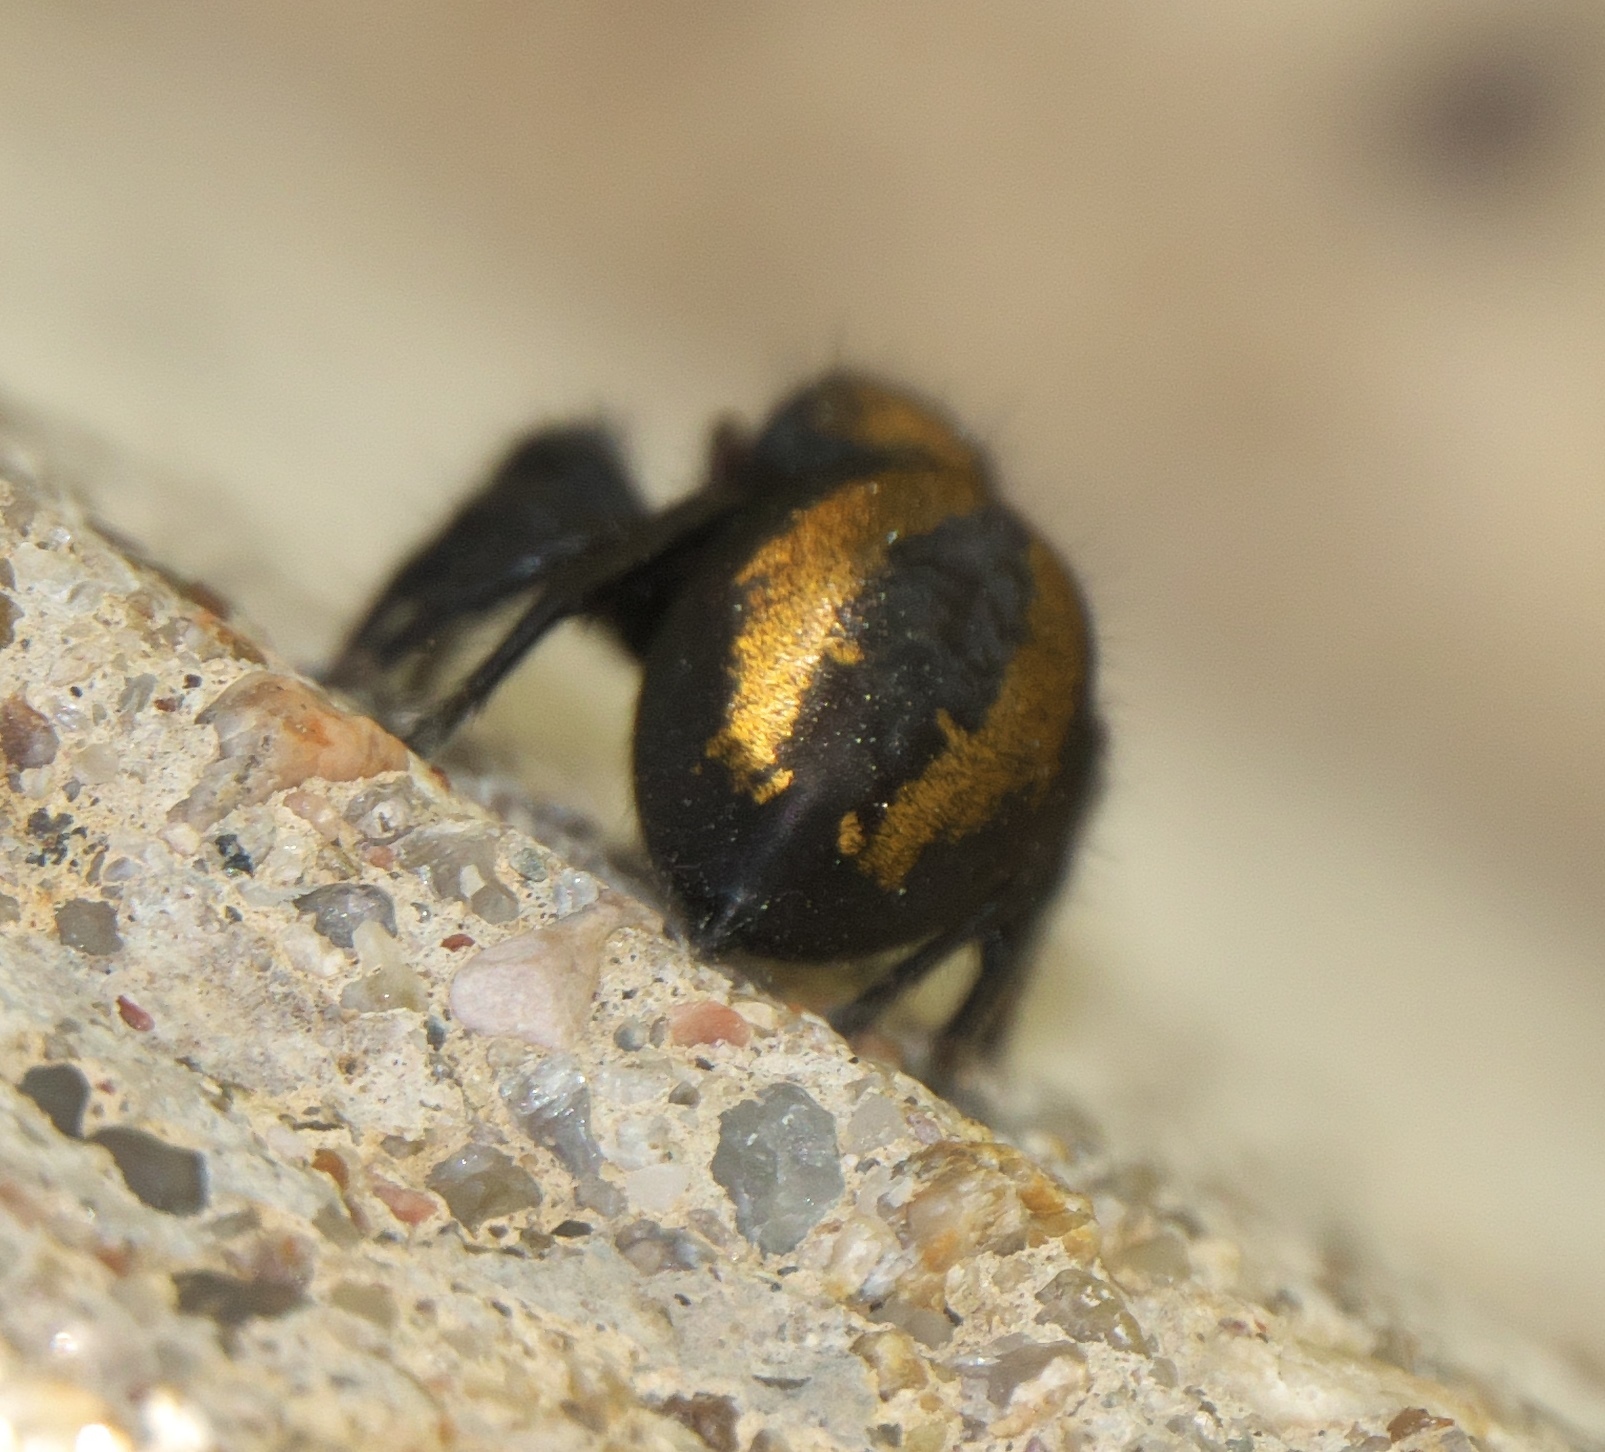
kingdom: Animalia
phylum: Arthropoda
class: Arachnida
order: Araneae
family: Salticidae
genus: Phidippus
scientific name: Phidippus apacheanus
